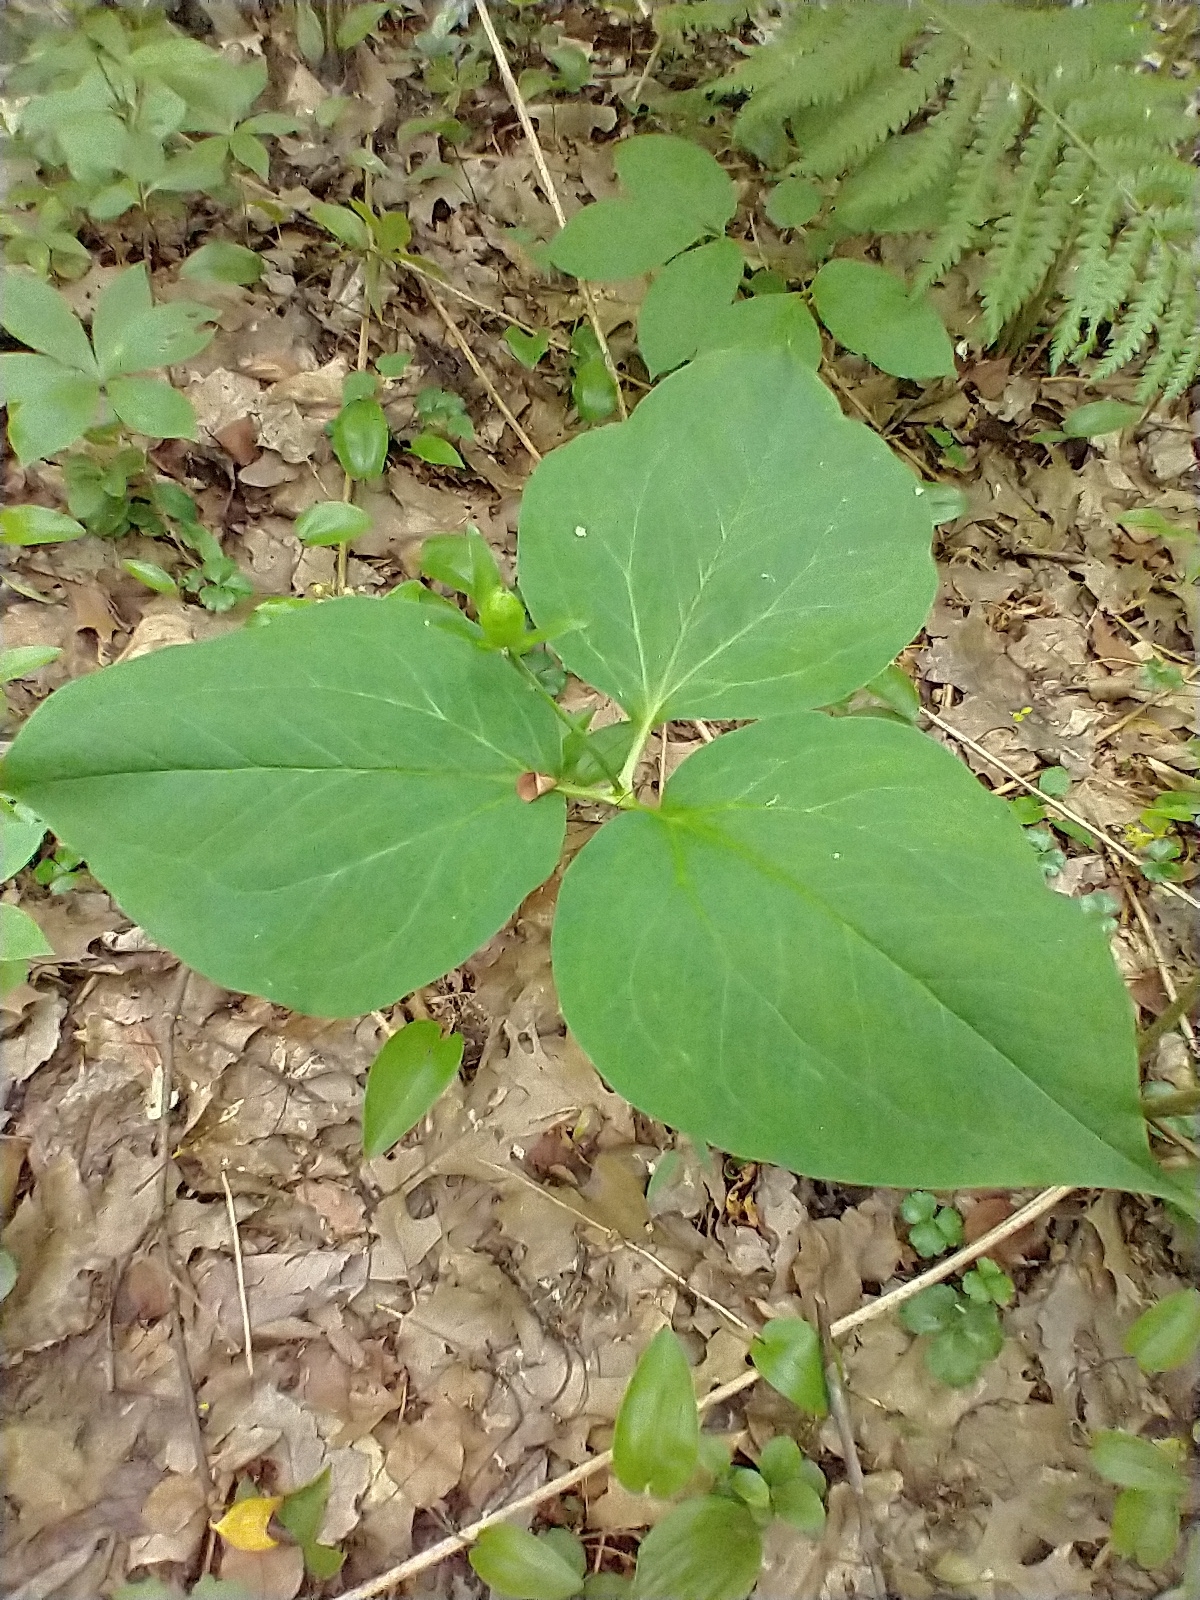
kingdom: Plantae
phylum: Tracheophyta
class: Liliopsida
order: Liliales
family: Melanthiaceae
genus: Trillium
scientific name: Trillium undulatum
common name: Paint trillium
